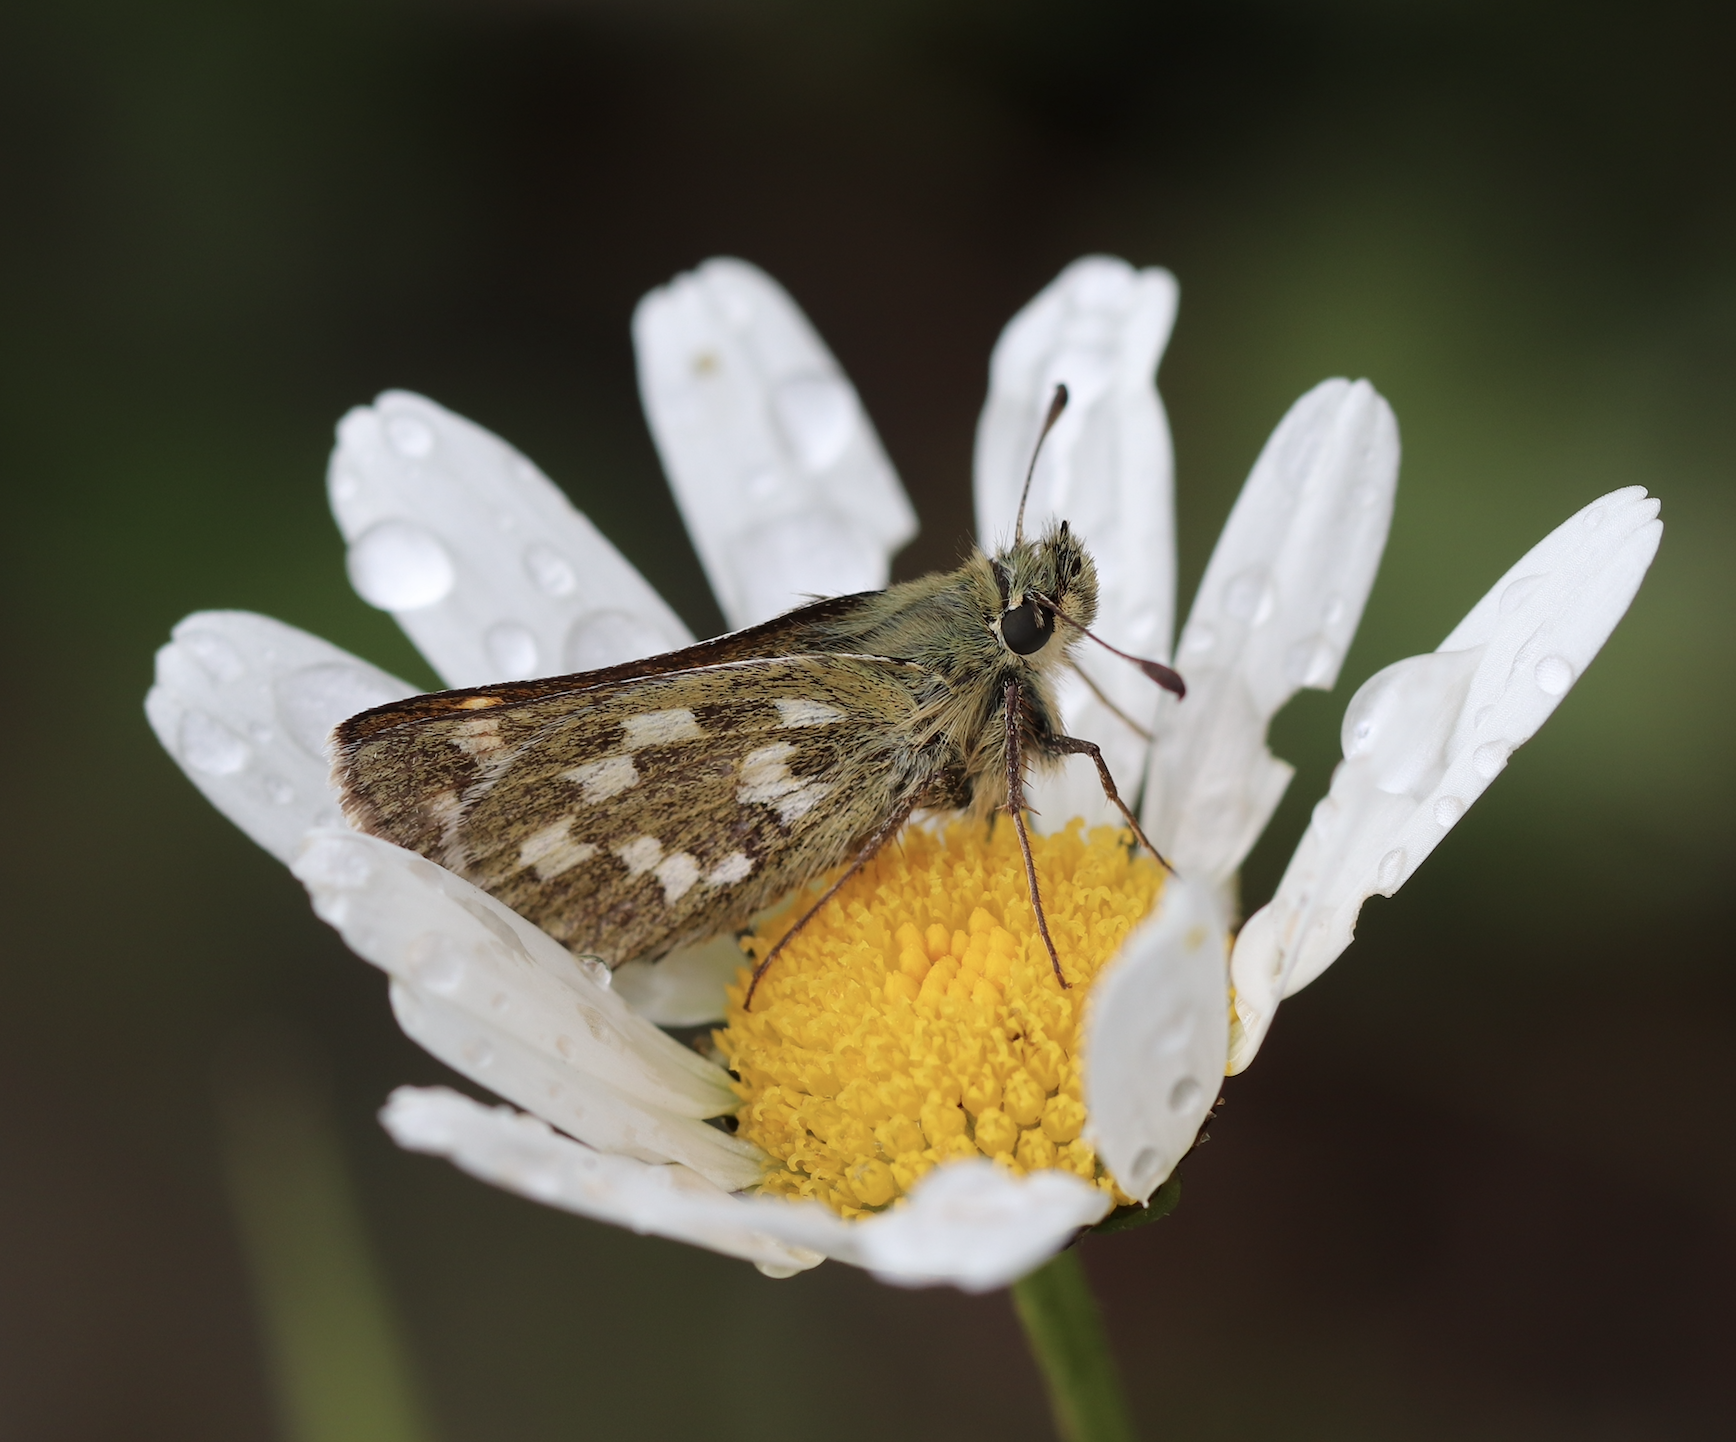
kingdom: Animalia
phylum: Arthropoda
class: Insecta
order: Lepidoptera
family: Hesperiidae
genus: Hesperia
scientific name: Hesperia comma
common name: Common branded skipper
